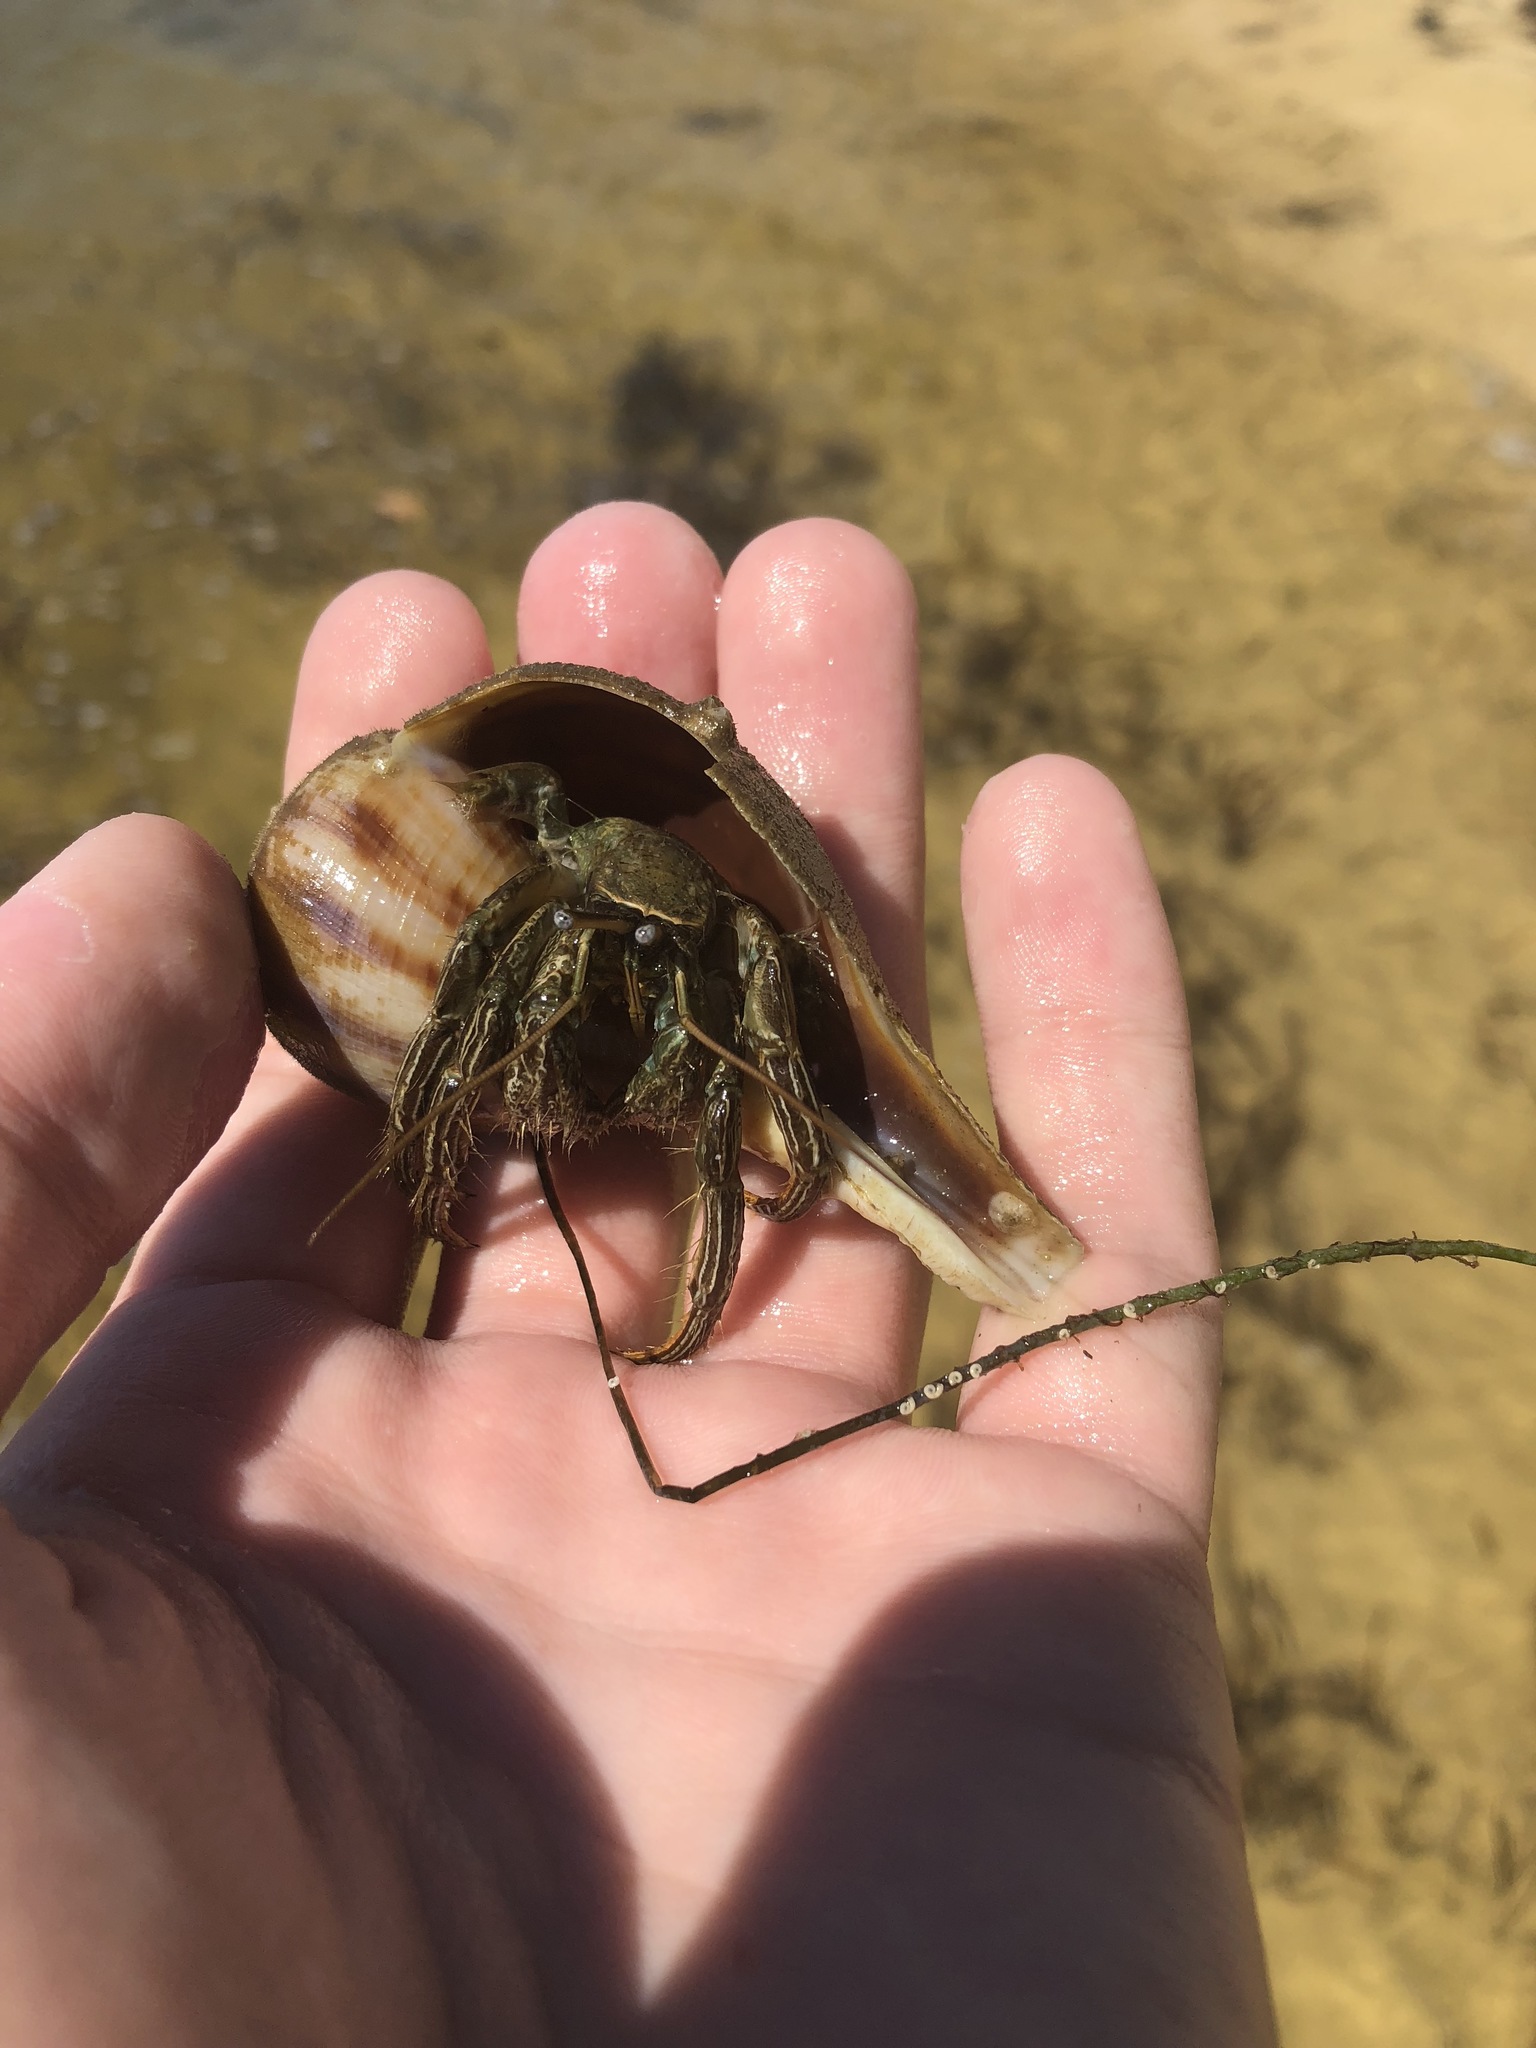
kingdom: Animalia
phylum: Arthropoda
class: Malacostraca
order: Decapoda
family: Diogenidae
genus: Clibanarius
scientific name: Clibanarius vittatus
